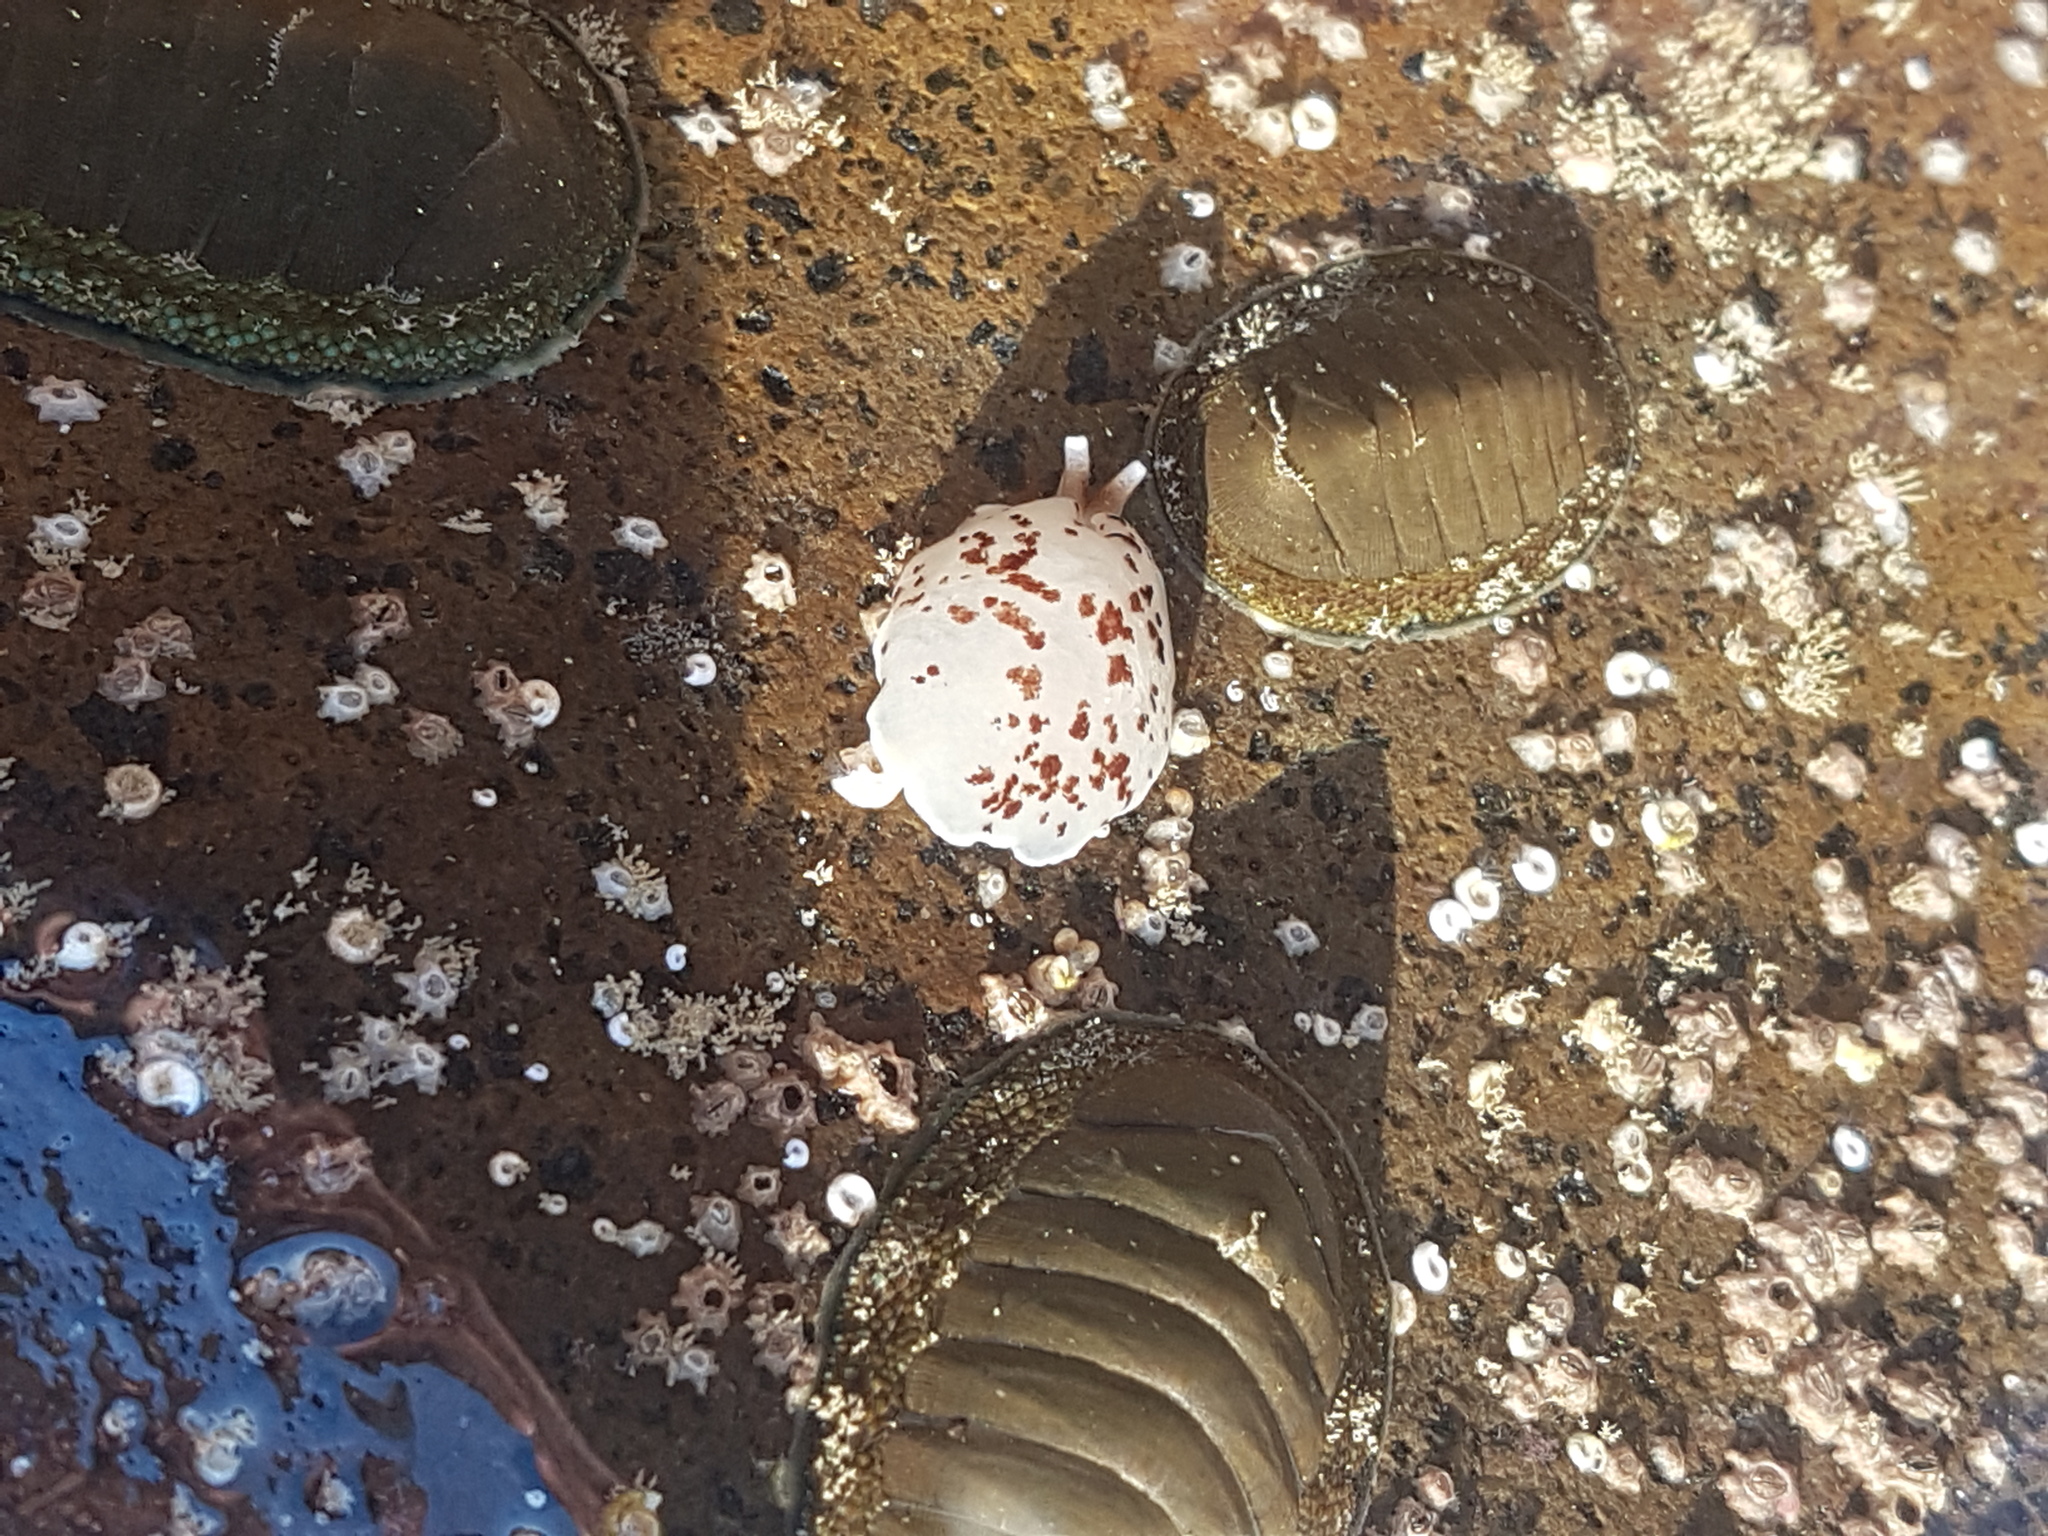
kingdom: Animalia
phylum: Mollusca
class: Gastropoda
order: Pleurobranchida
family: Pleurobranchidae
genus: Berthella
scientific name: Berthella ornata
